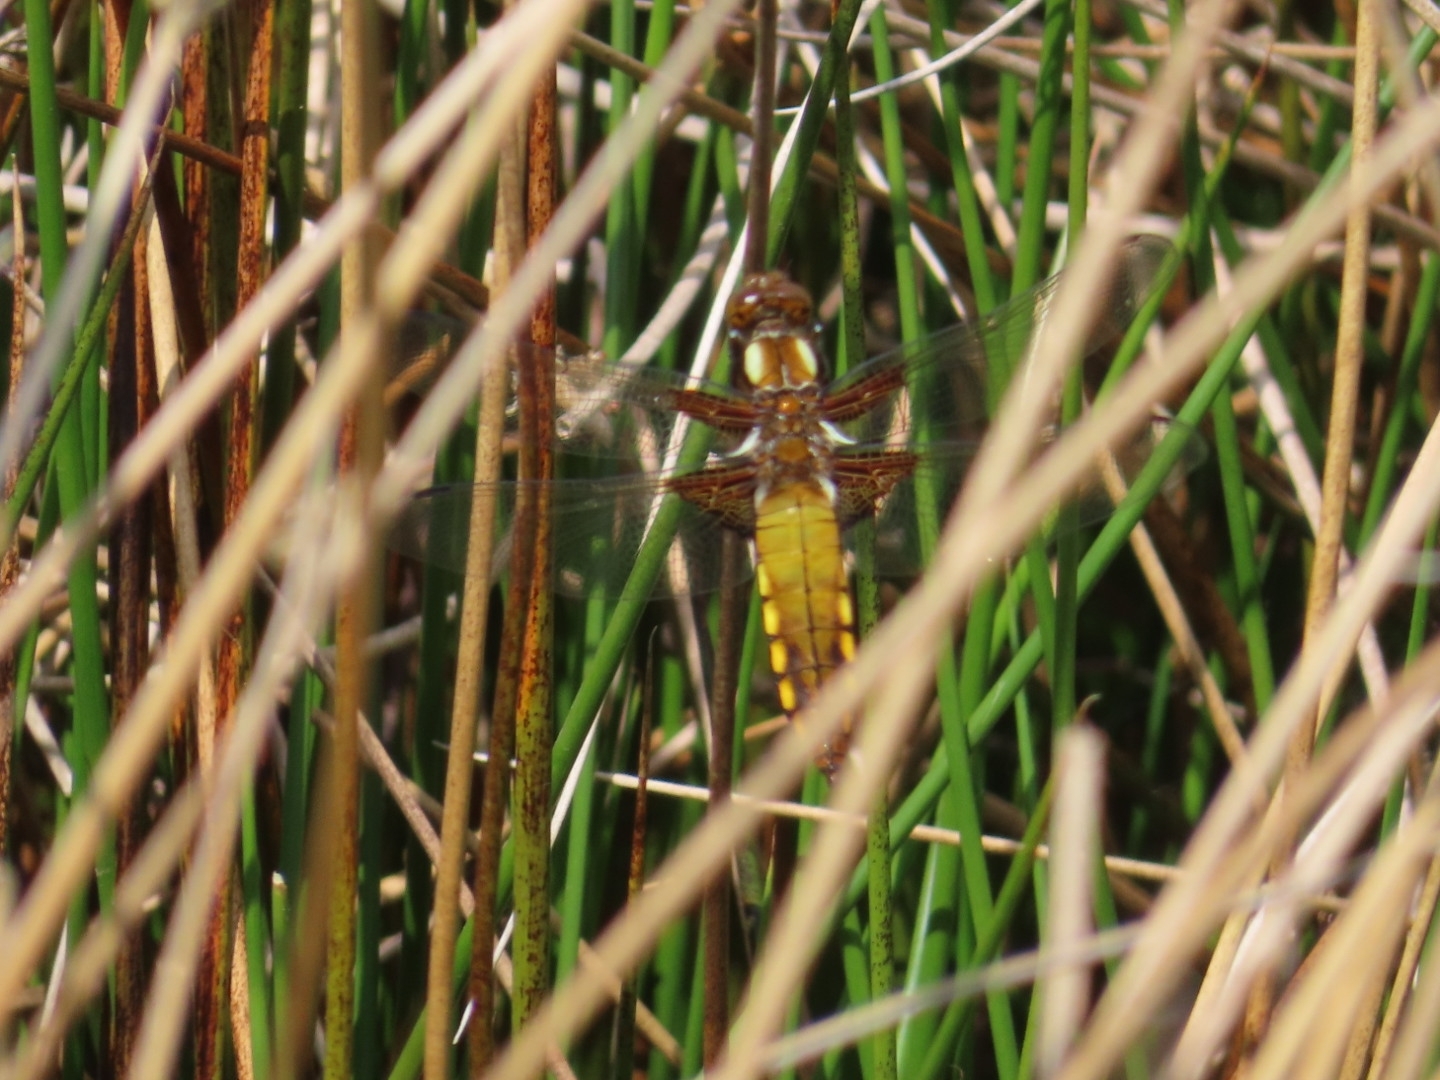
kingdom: Animalia
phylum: Arthropoda
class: Insecta
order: Odonata
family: Libellulidae
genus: Libellula
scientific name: Libellula depressa
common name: Broad-bodied chaser
